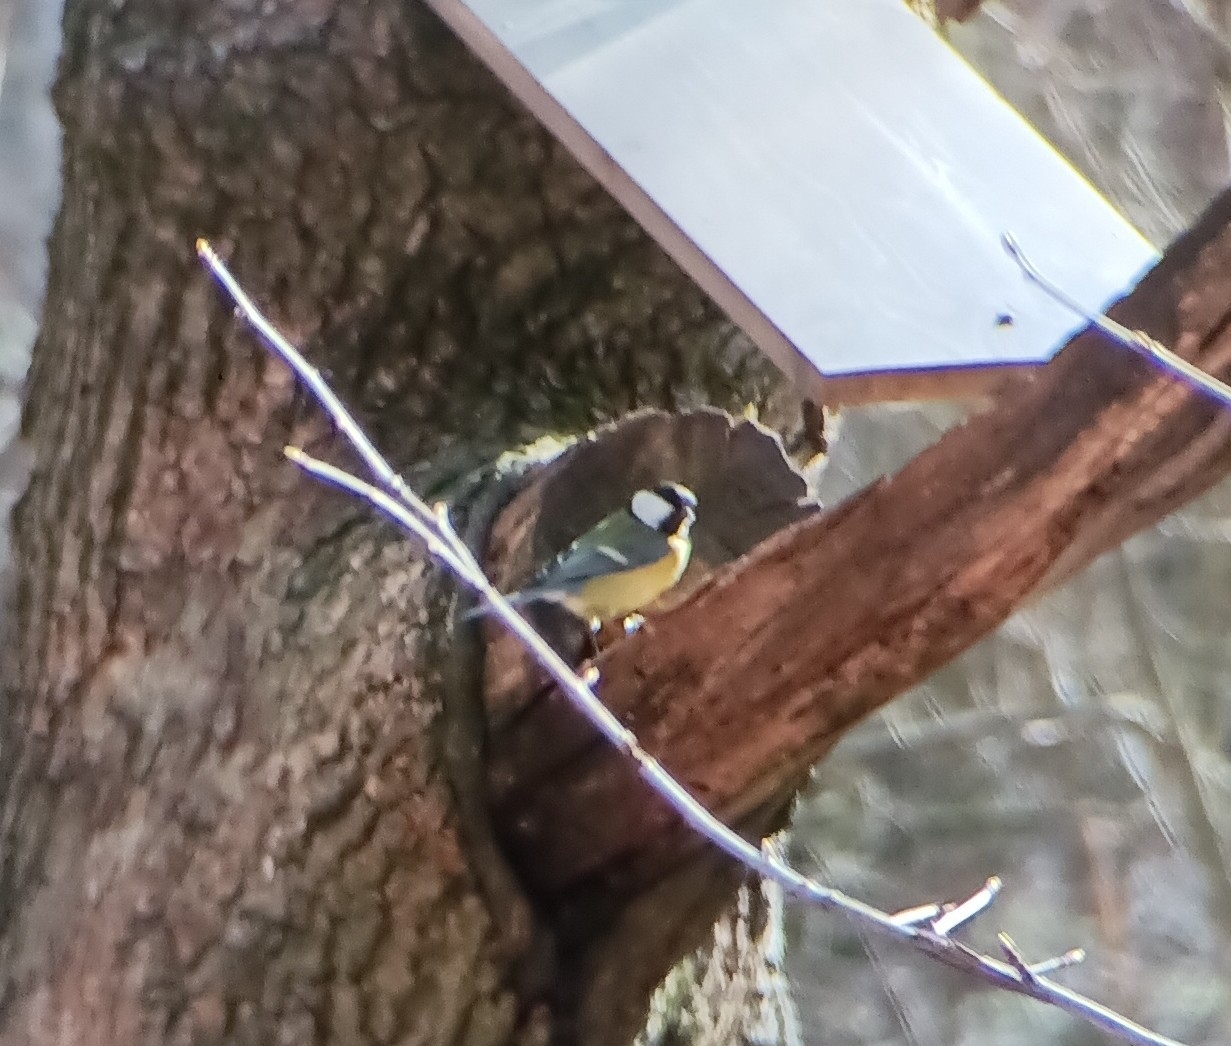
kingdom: Animalia
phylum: Chordata
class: Aves
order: Passeriformes
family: Paridae
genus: Parus
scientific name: Parus major
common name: Great tit
